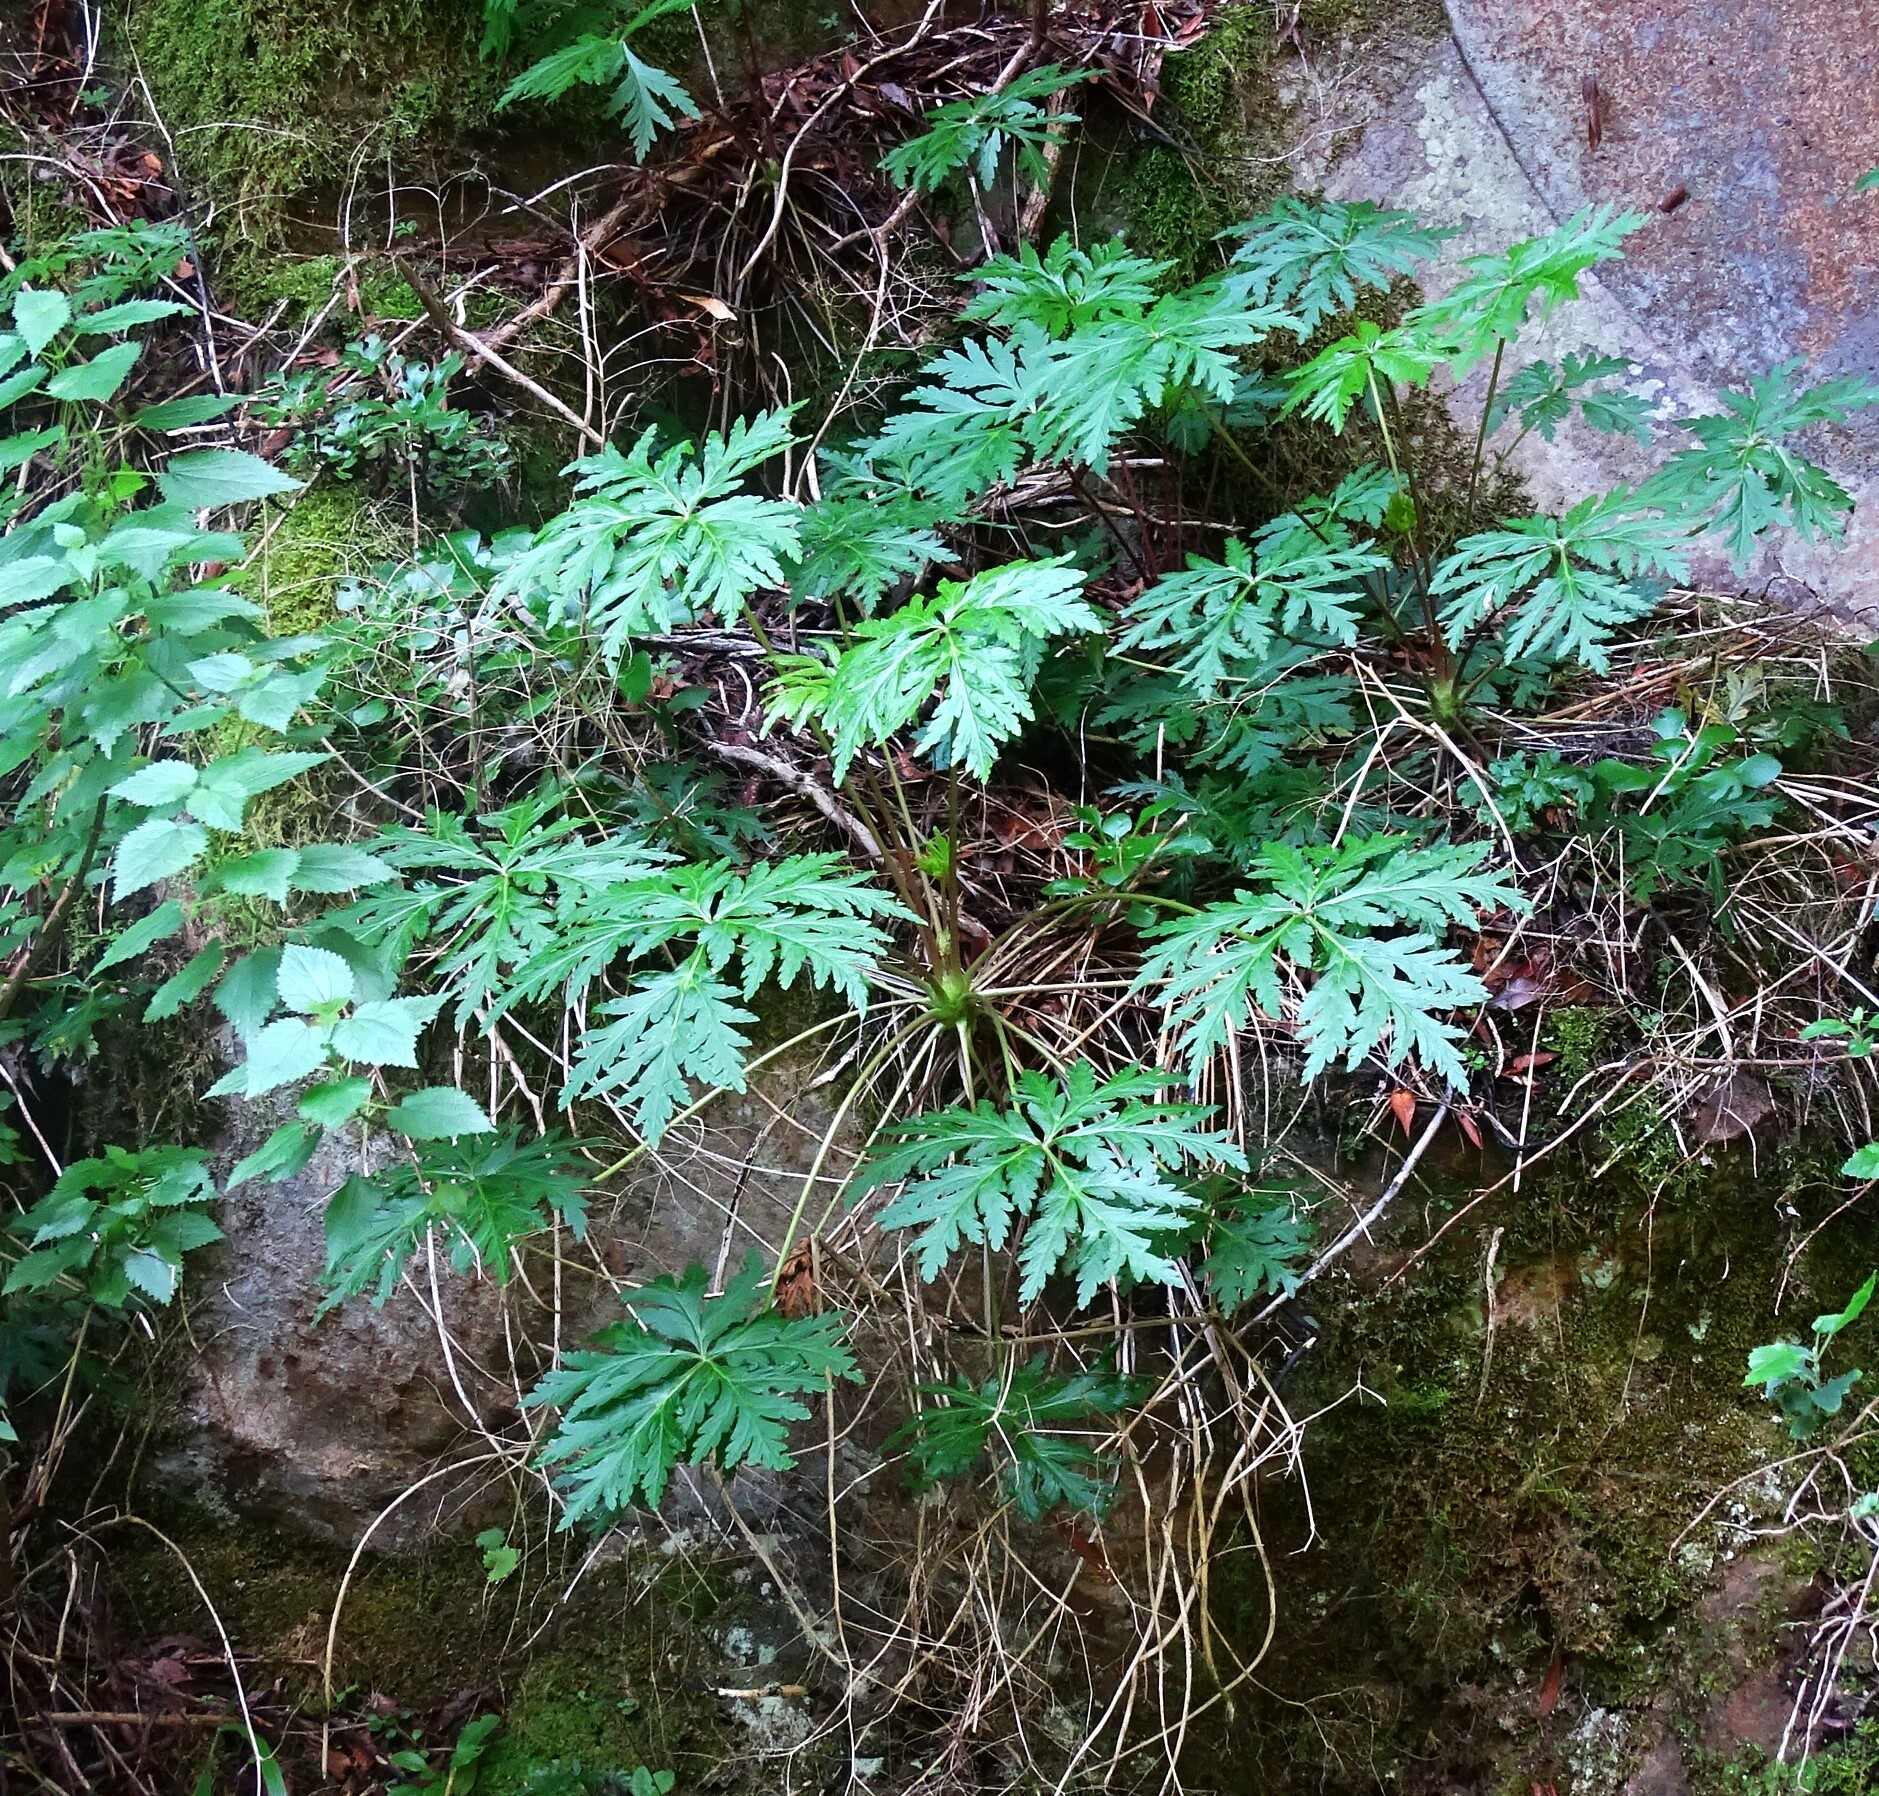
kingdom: Plantae
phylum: Tracheophyta
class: Magnoliopsida
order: Geraniales
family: Geraniaceae
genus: Geranium
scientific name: Geranium reuteri
